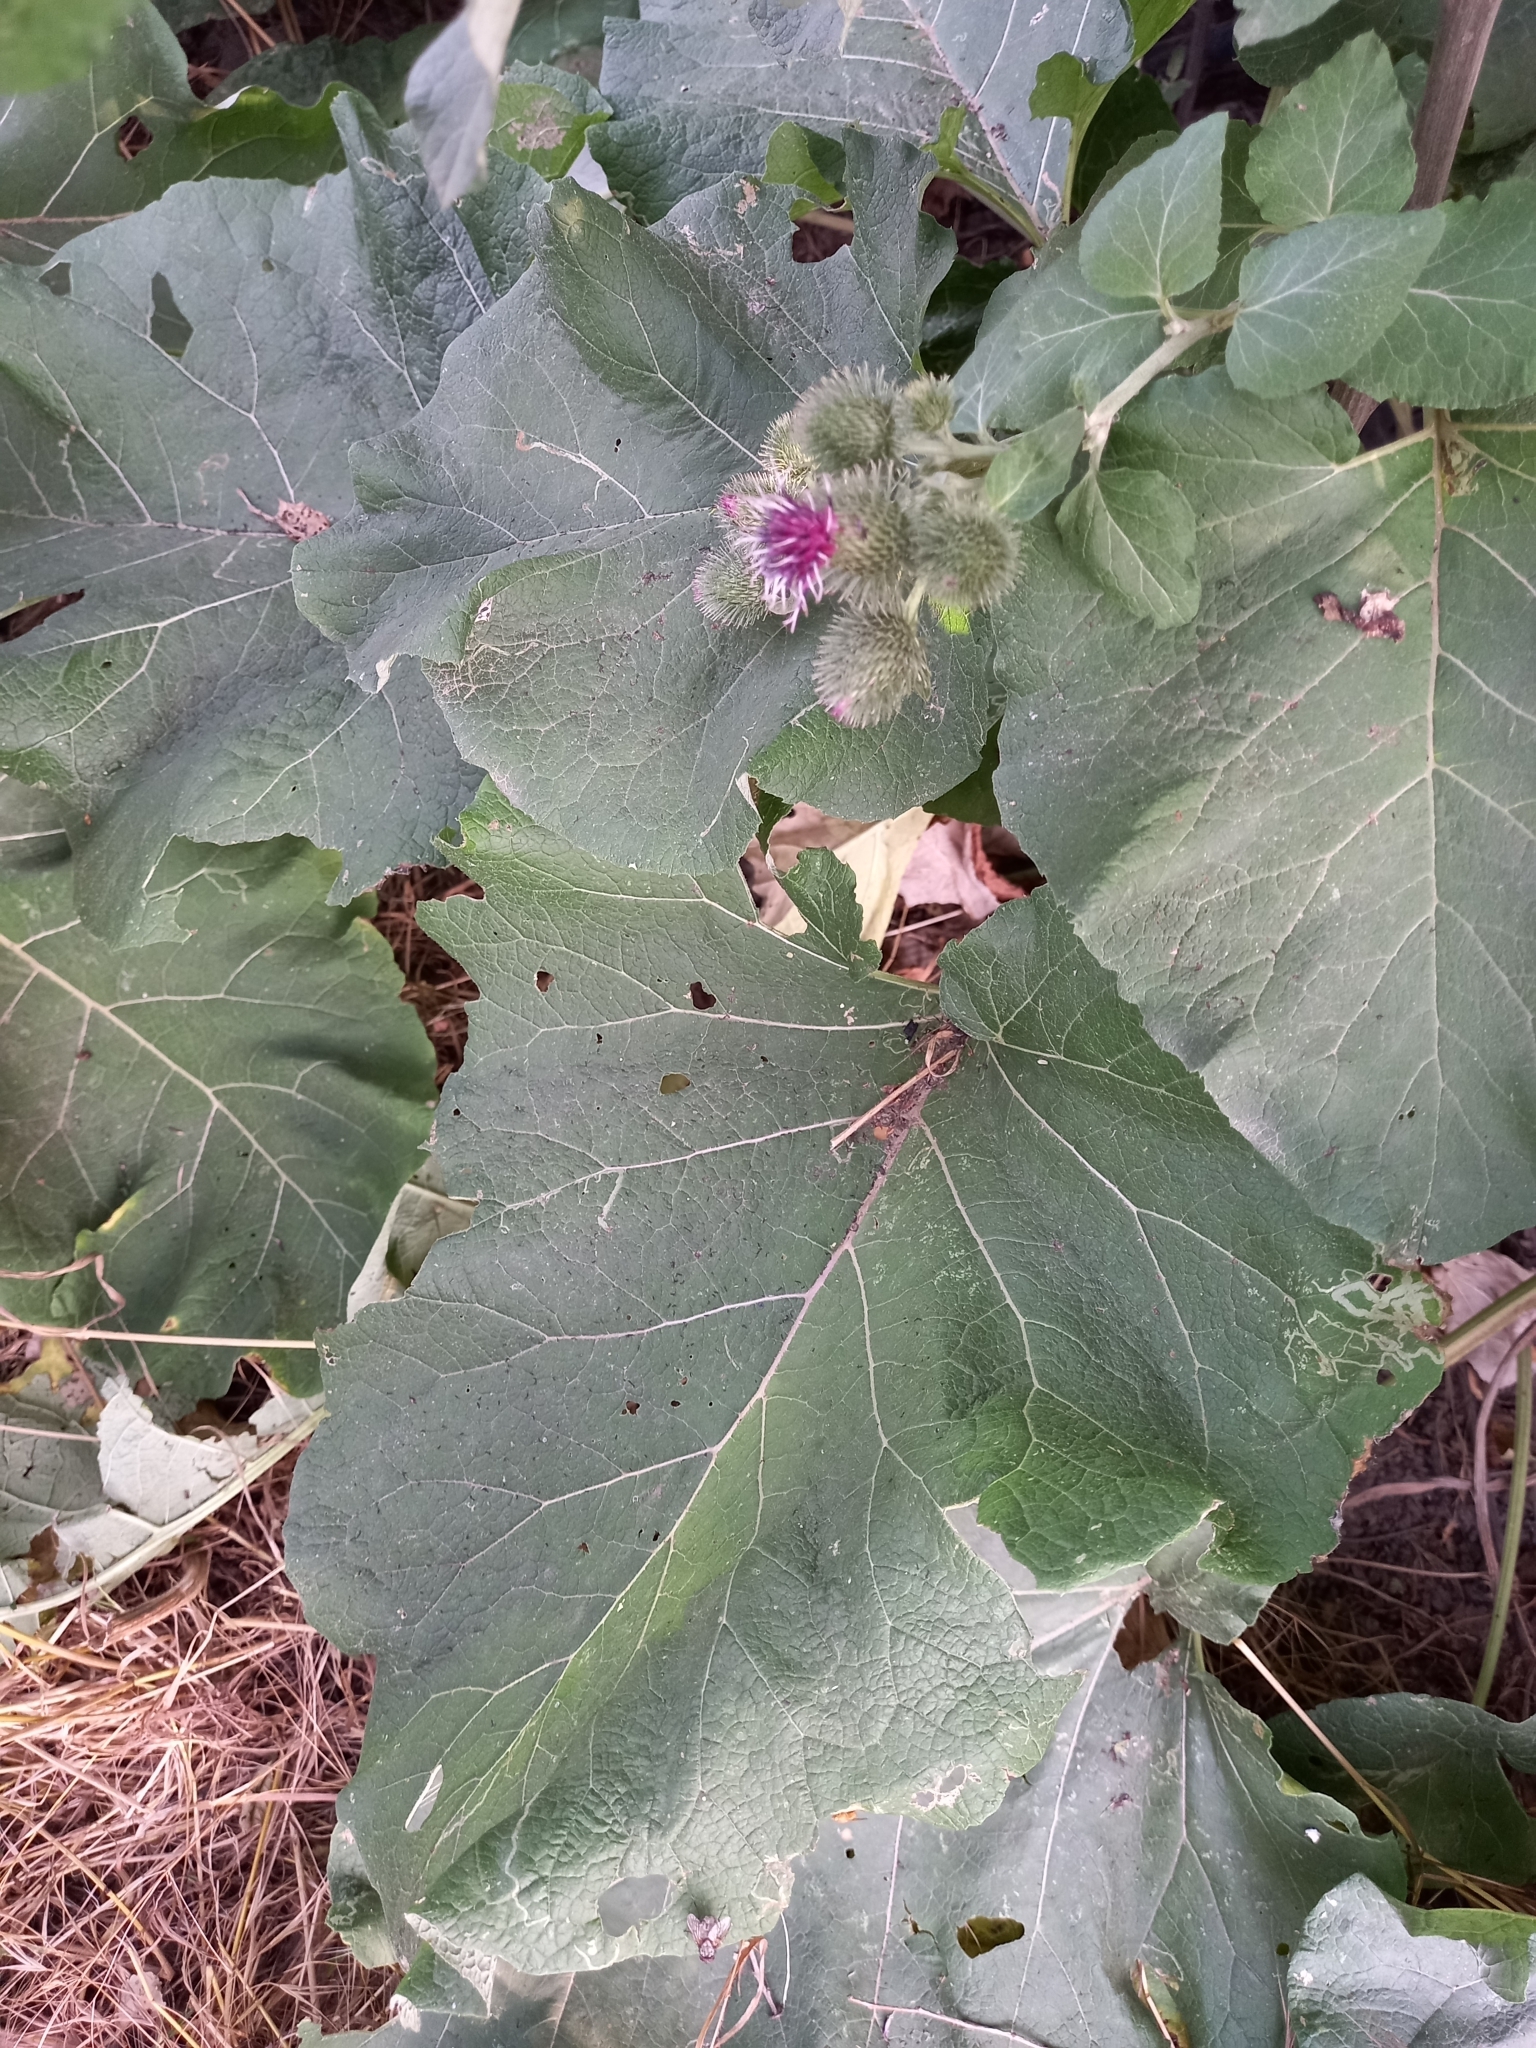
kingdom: Plantae
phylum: Tracheophyta
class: Magnoliopsida
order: Asterales
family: Asteraceae
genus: Arctium
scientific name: Arctium tomentosum
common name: Woolly burdock
